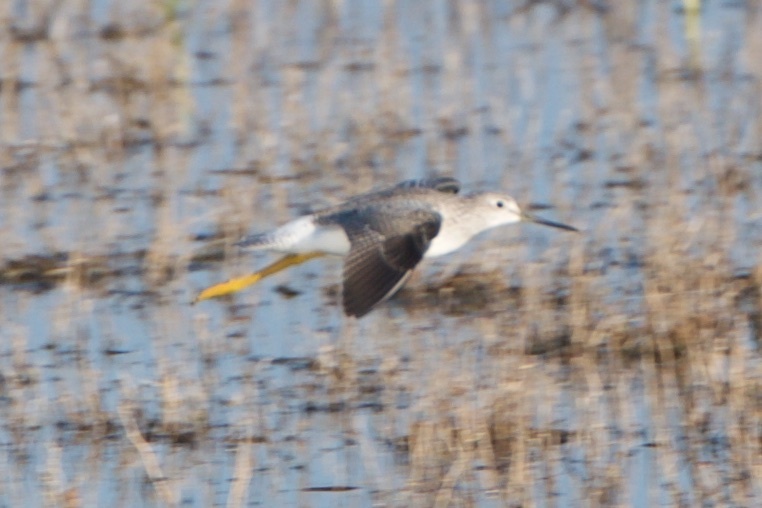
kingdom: Animalia
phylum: Chordata
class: Aves
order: Charadriiformes
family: Scolopacidae
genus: Tringa
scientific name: Tringa melanoleuca
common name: Greater yellowlegs
